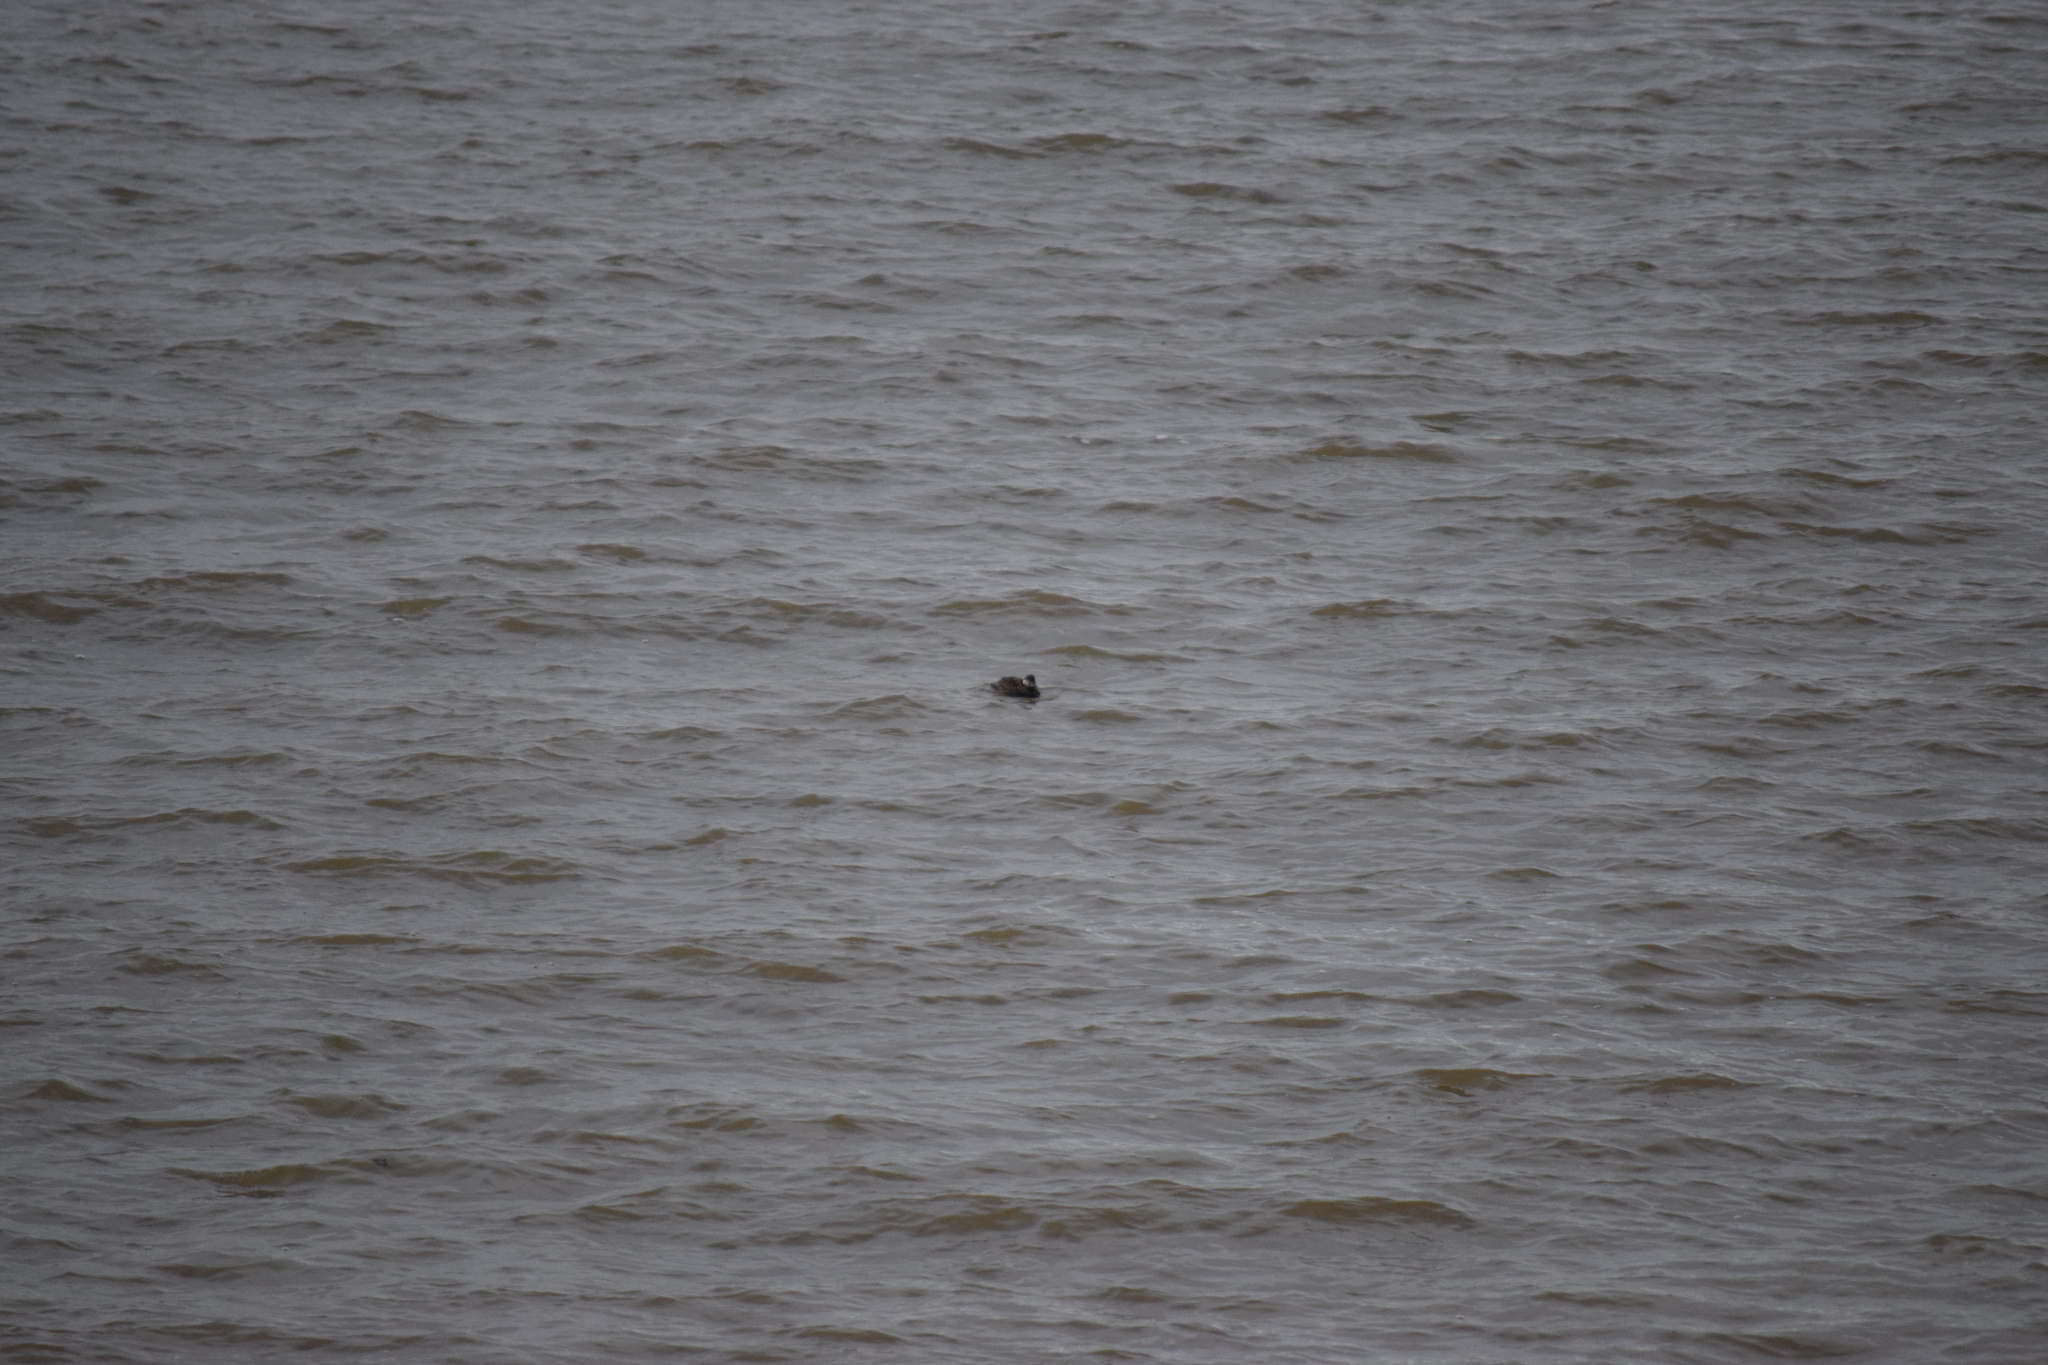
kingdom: Animalia
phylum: Chordata
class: Aves
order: Anseriformes
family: Anatidae
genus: Melanitta
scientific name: Melanitta nigra
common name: Common scoter
